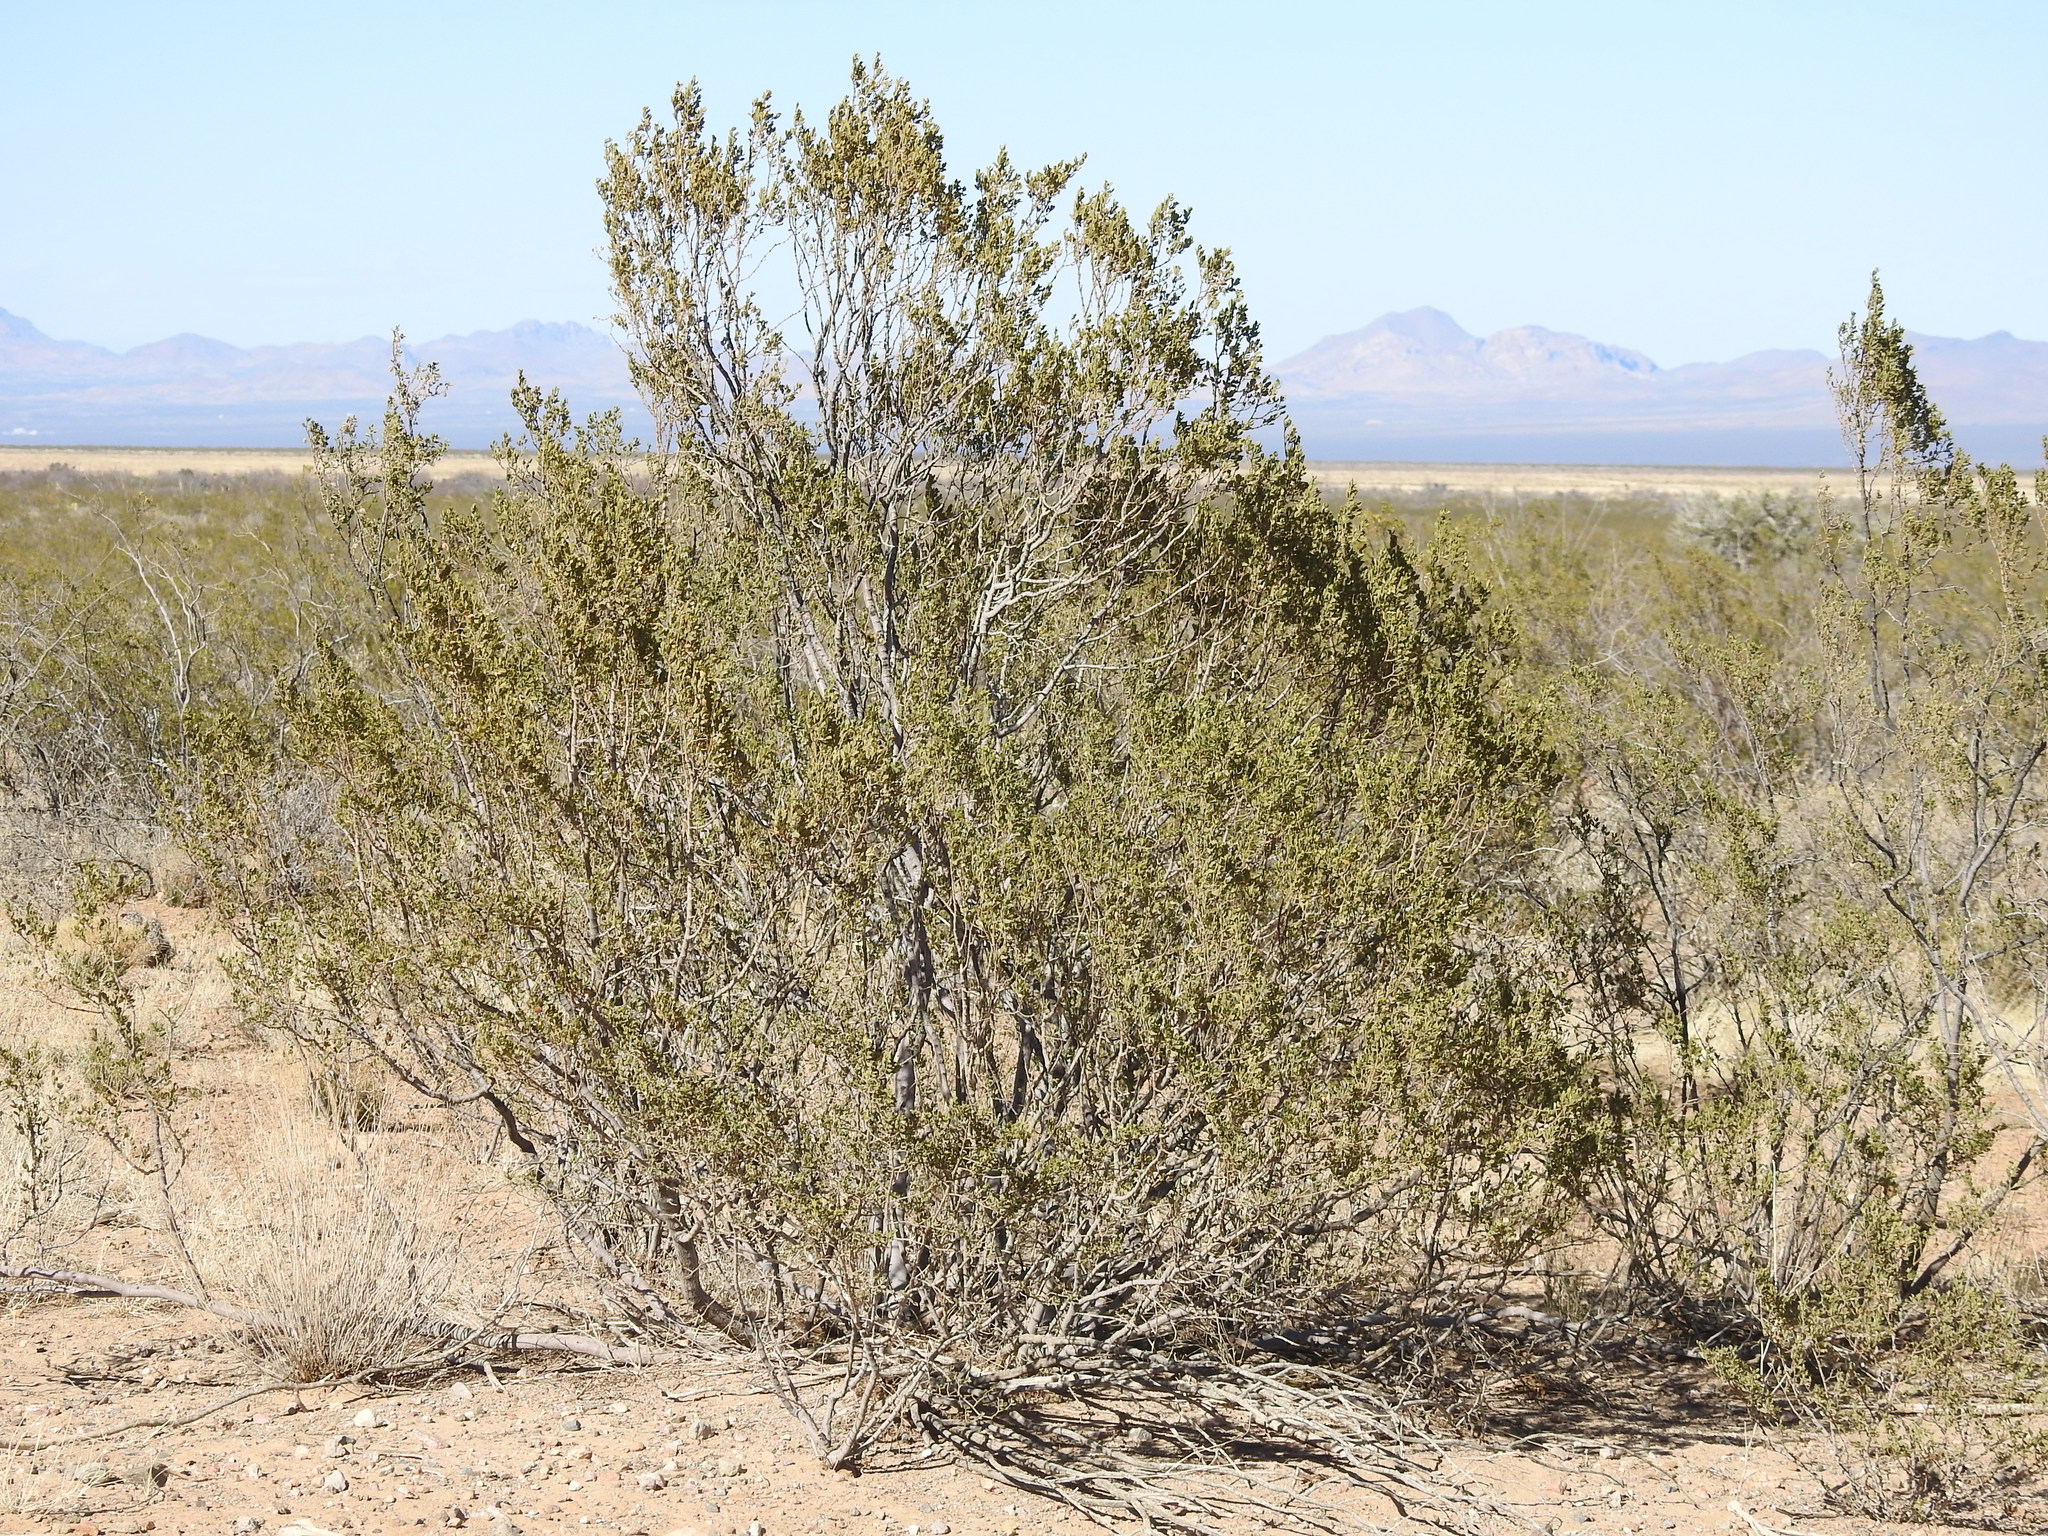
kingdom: Plantae
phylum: Tracheophyta
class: Magnoliopsida
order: Zygophyllales
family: Zygophyllaceae
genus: Larrea
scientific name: Larrea tridentata
